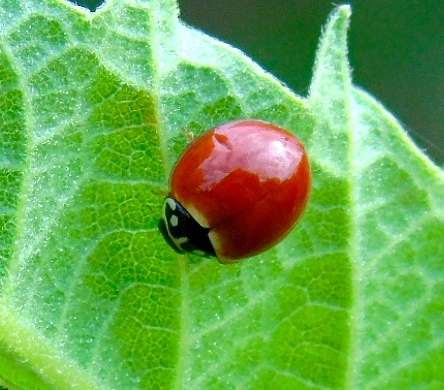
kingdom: Animalia
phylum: Arthropoda
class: Insecta
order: Coleoptera
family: Coccinellidae
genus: Cycloneda
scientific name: Cycloneda sanguinea
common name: Ladybird beetle
